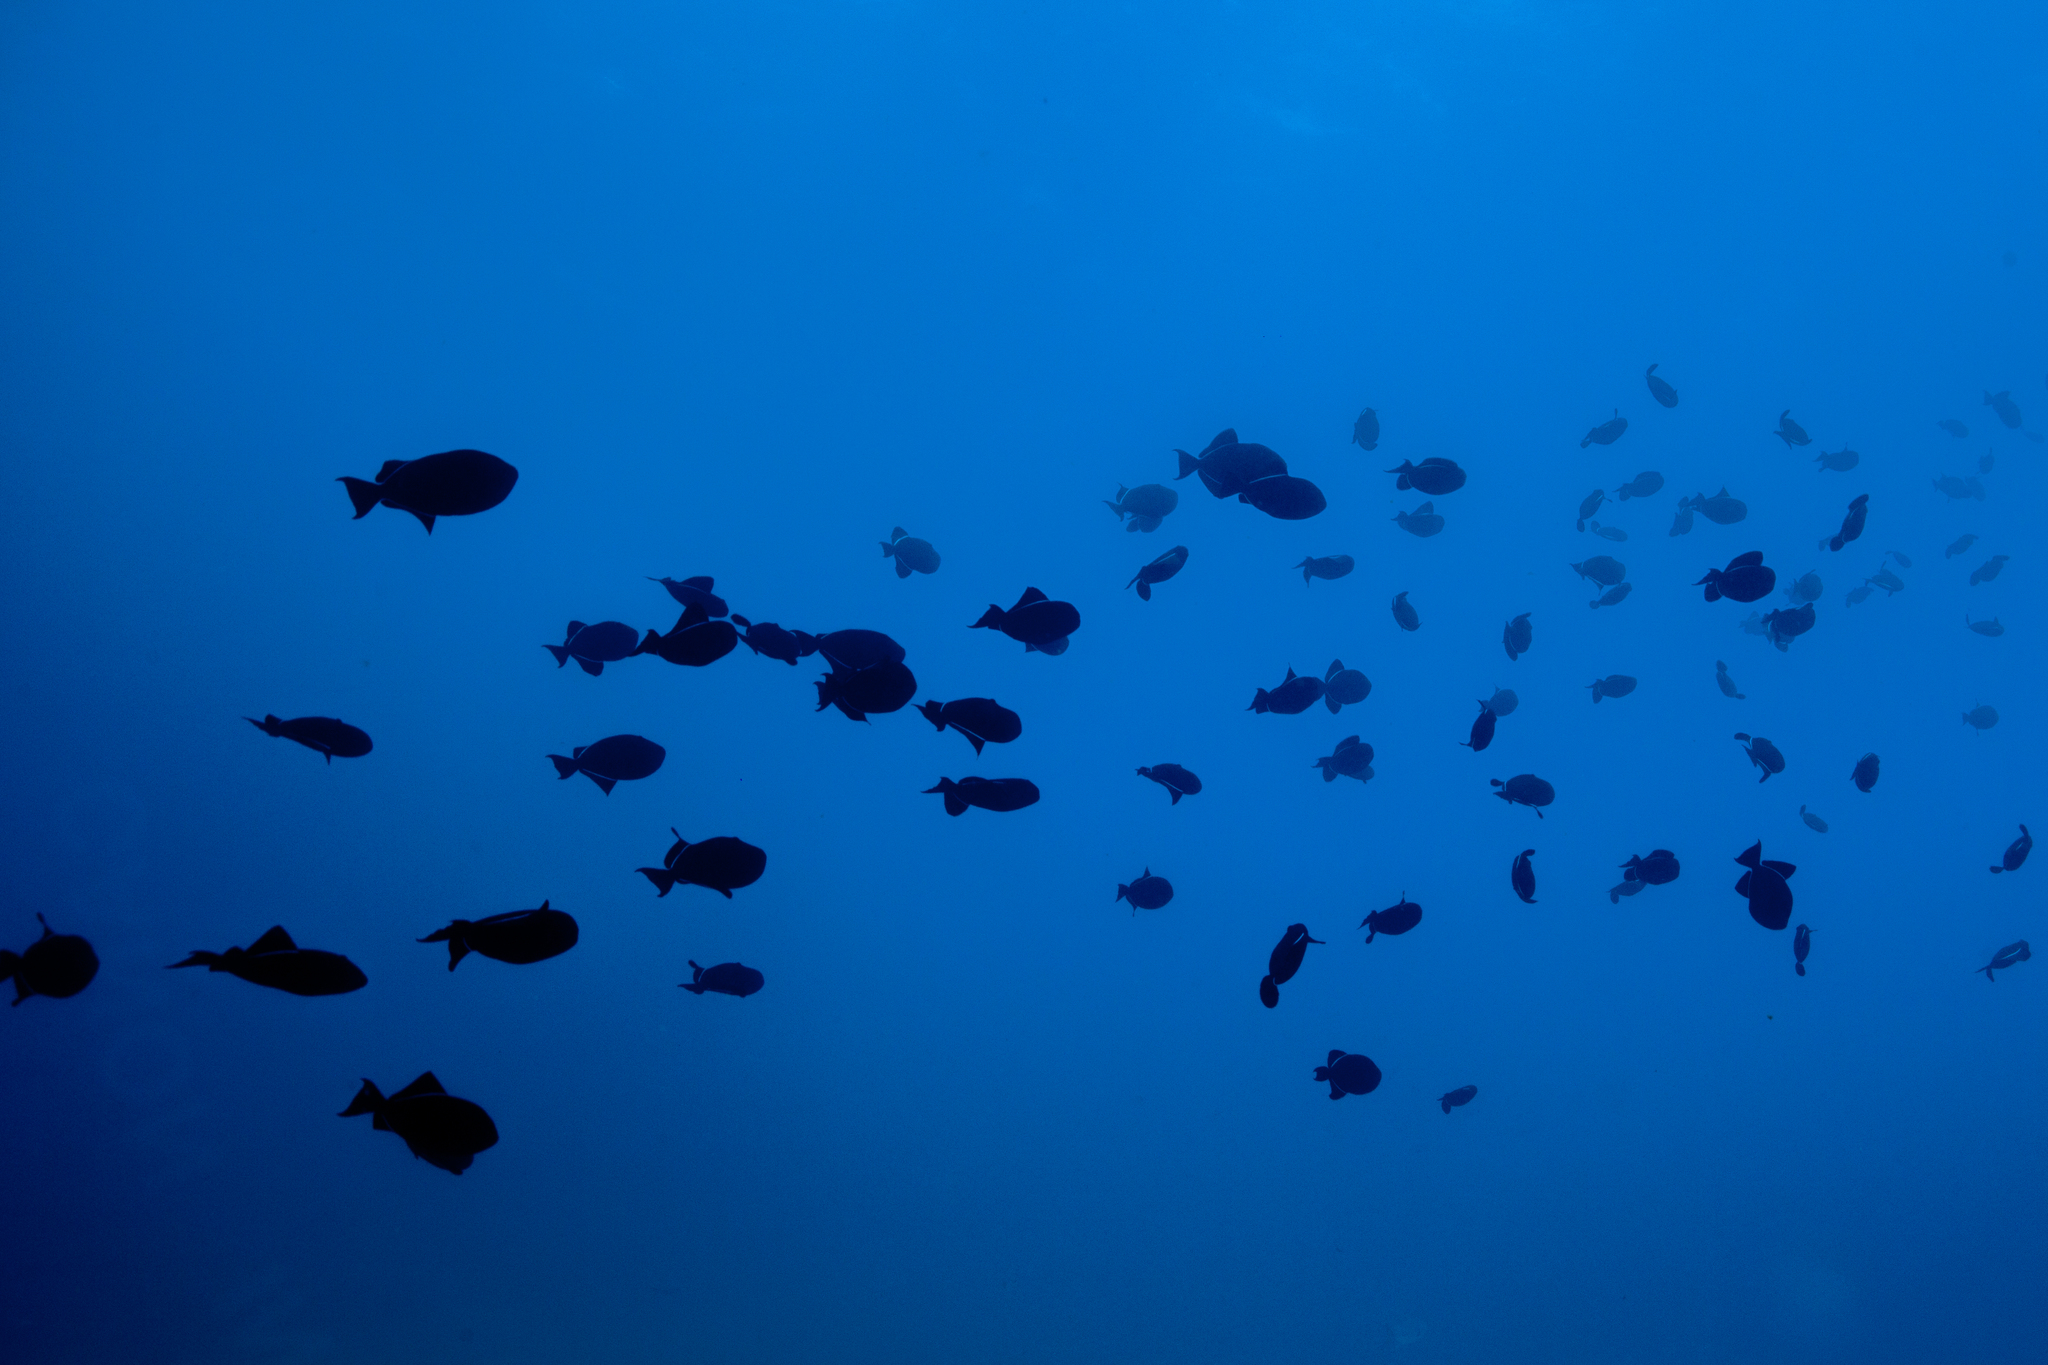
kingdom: Animalia
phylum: Chordata
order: Tetraodontiformes
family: Balistidae
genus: Melichthys
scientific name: Melichthys niger
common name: Black durgon
